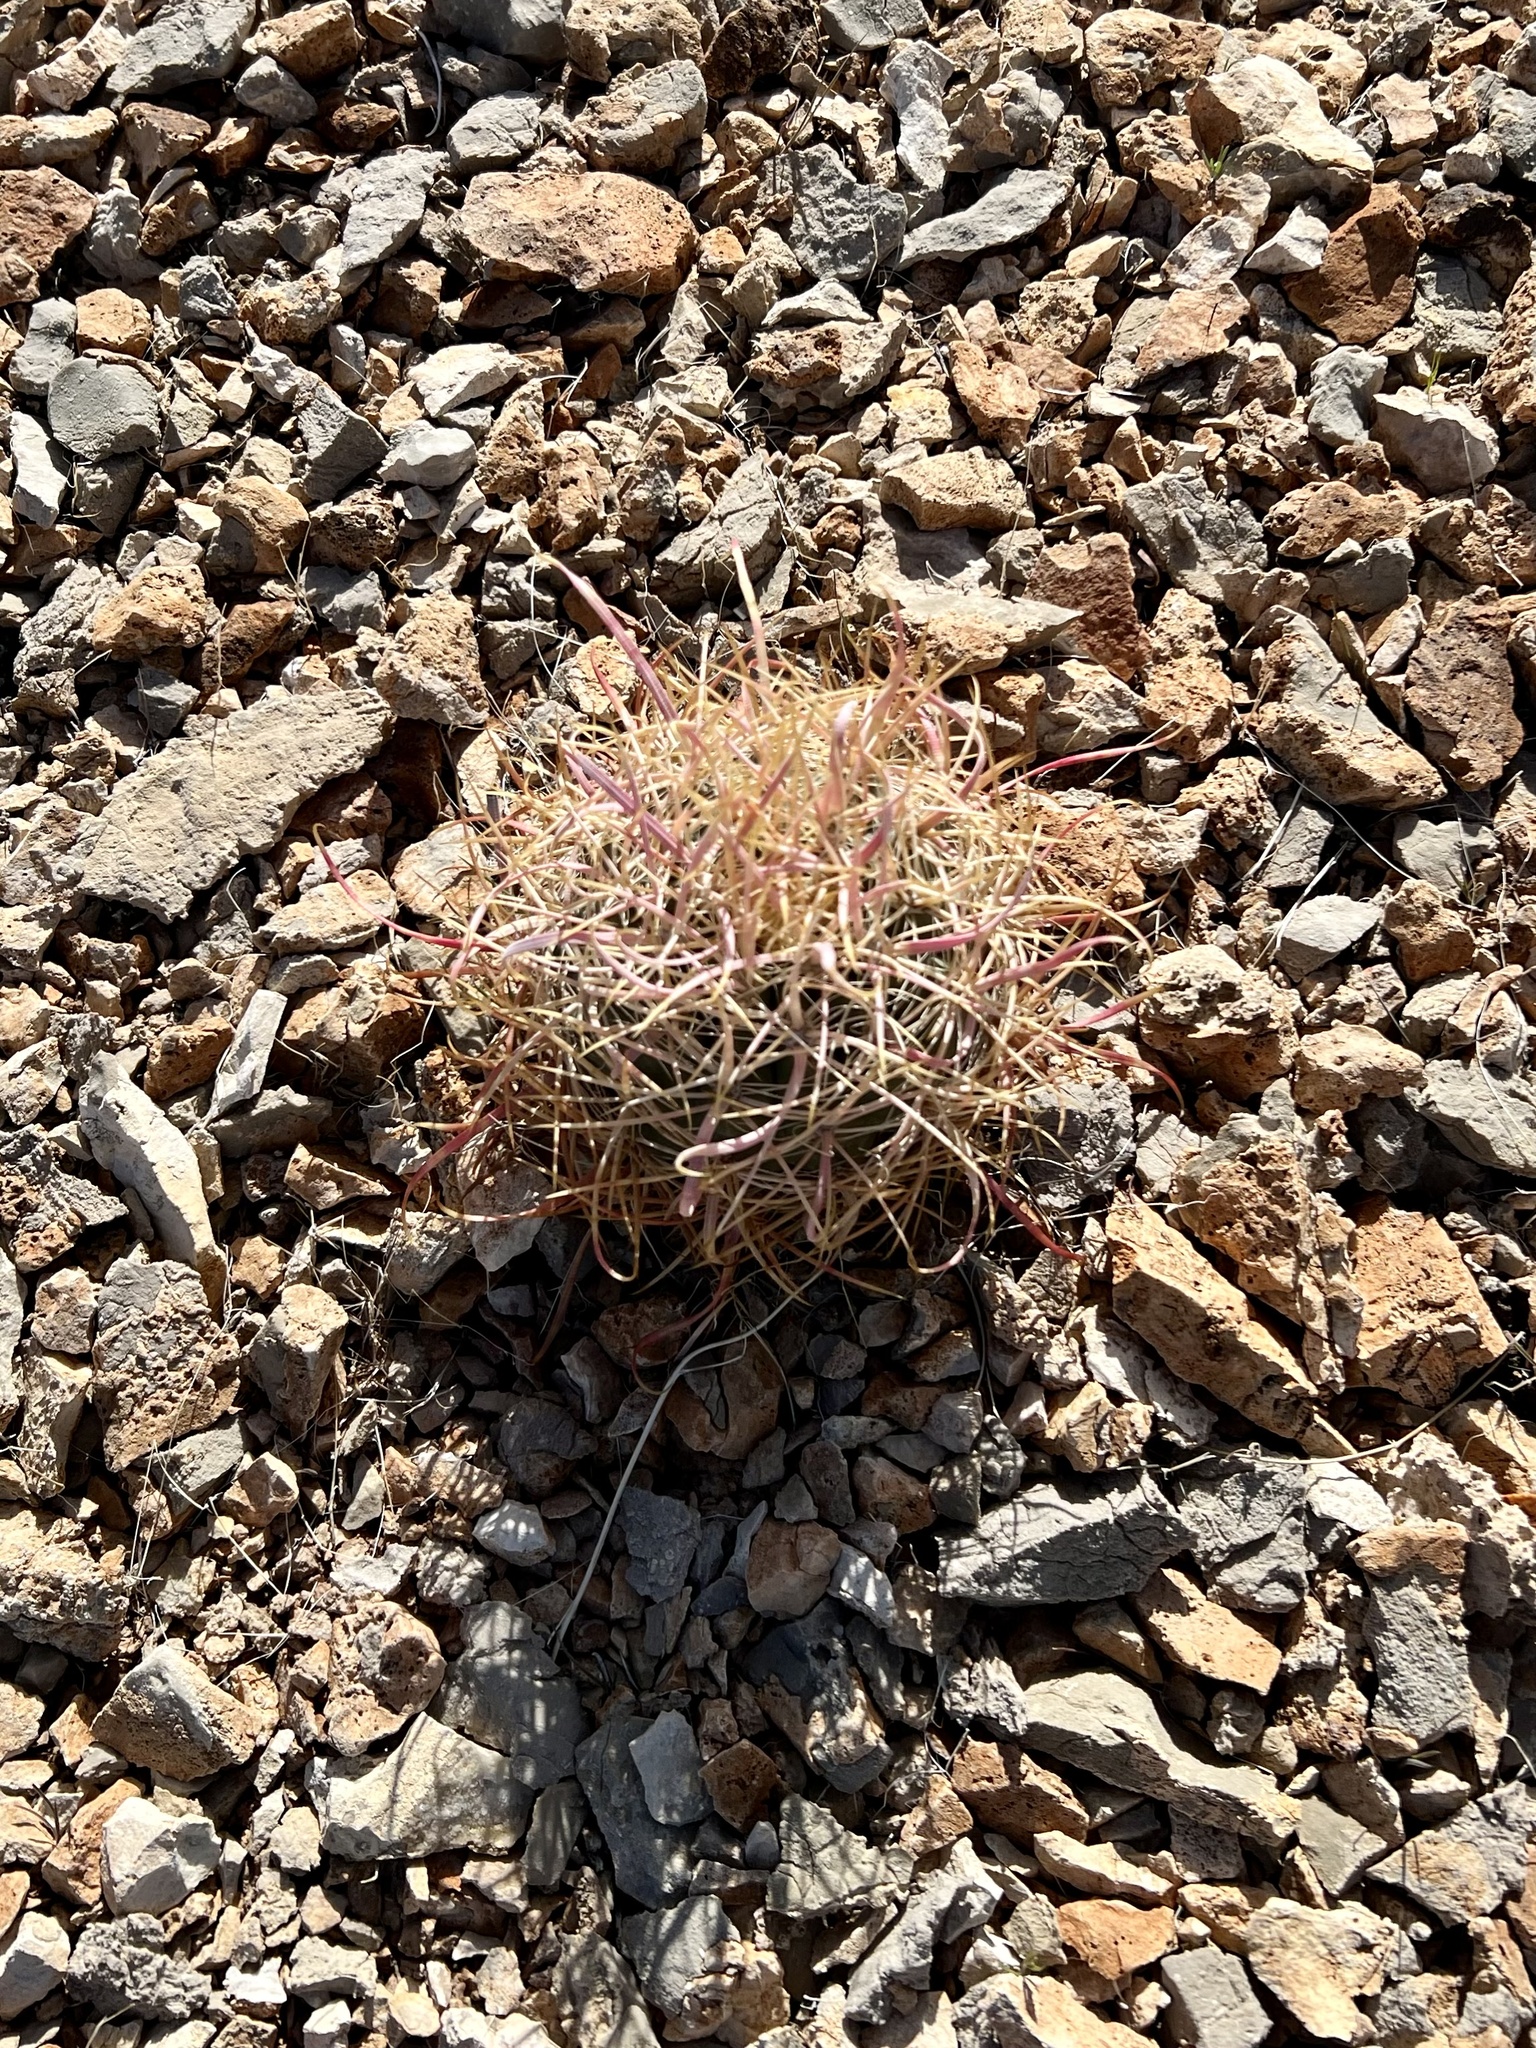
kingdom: Plantae
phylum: Tracheophyta
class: Magnoliopsida
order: Caryophyllales
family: Cactaceae
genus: Ferocactus
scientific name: Ferocactus cylindraceus
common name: California barrel cactus
